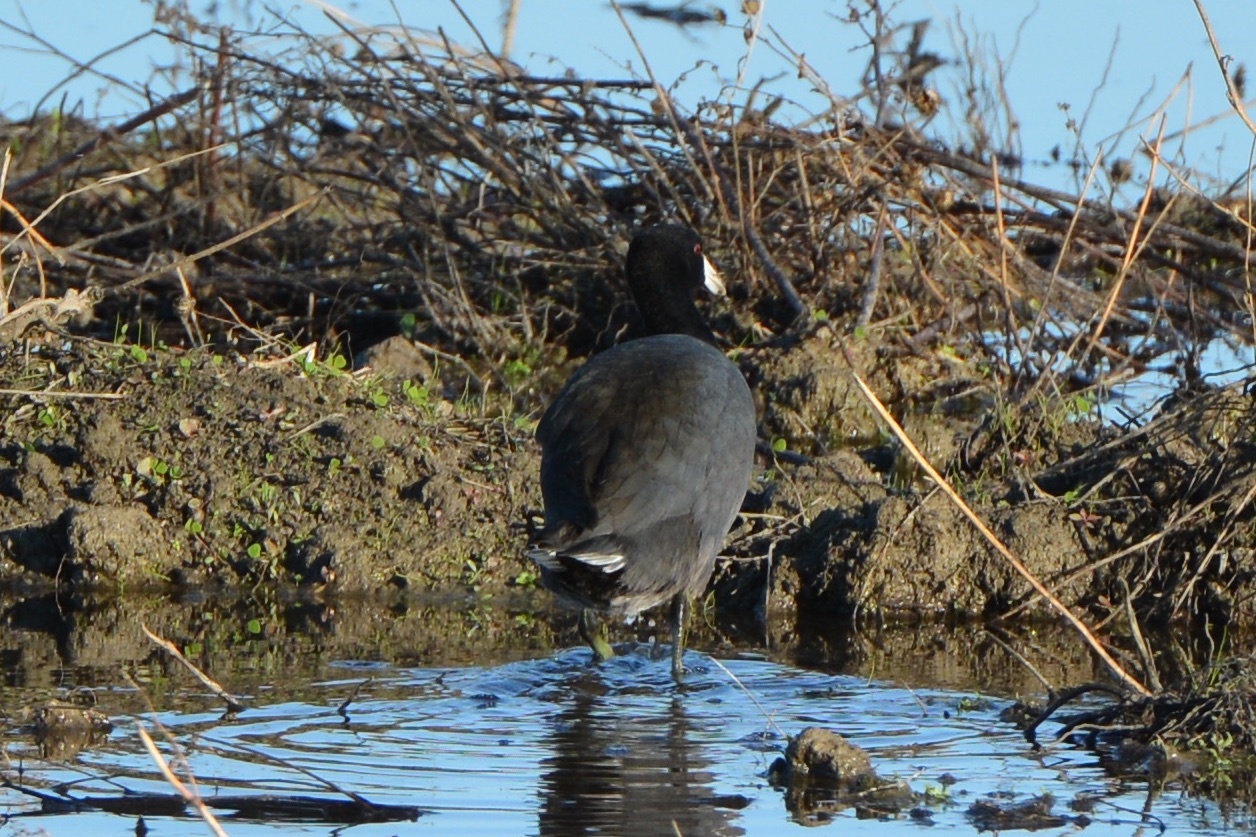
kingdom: Animalia
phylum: Chordata
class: Aves
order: Gruiformes
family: Rallidae
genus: Fulica
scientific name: Fulica americana
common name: American coot
